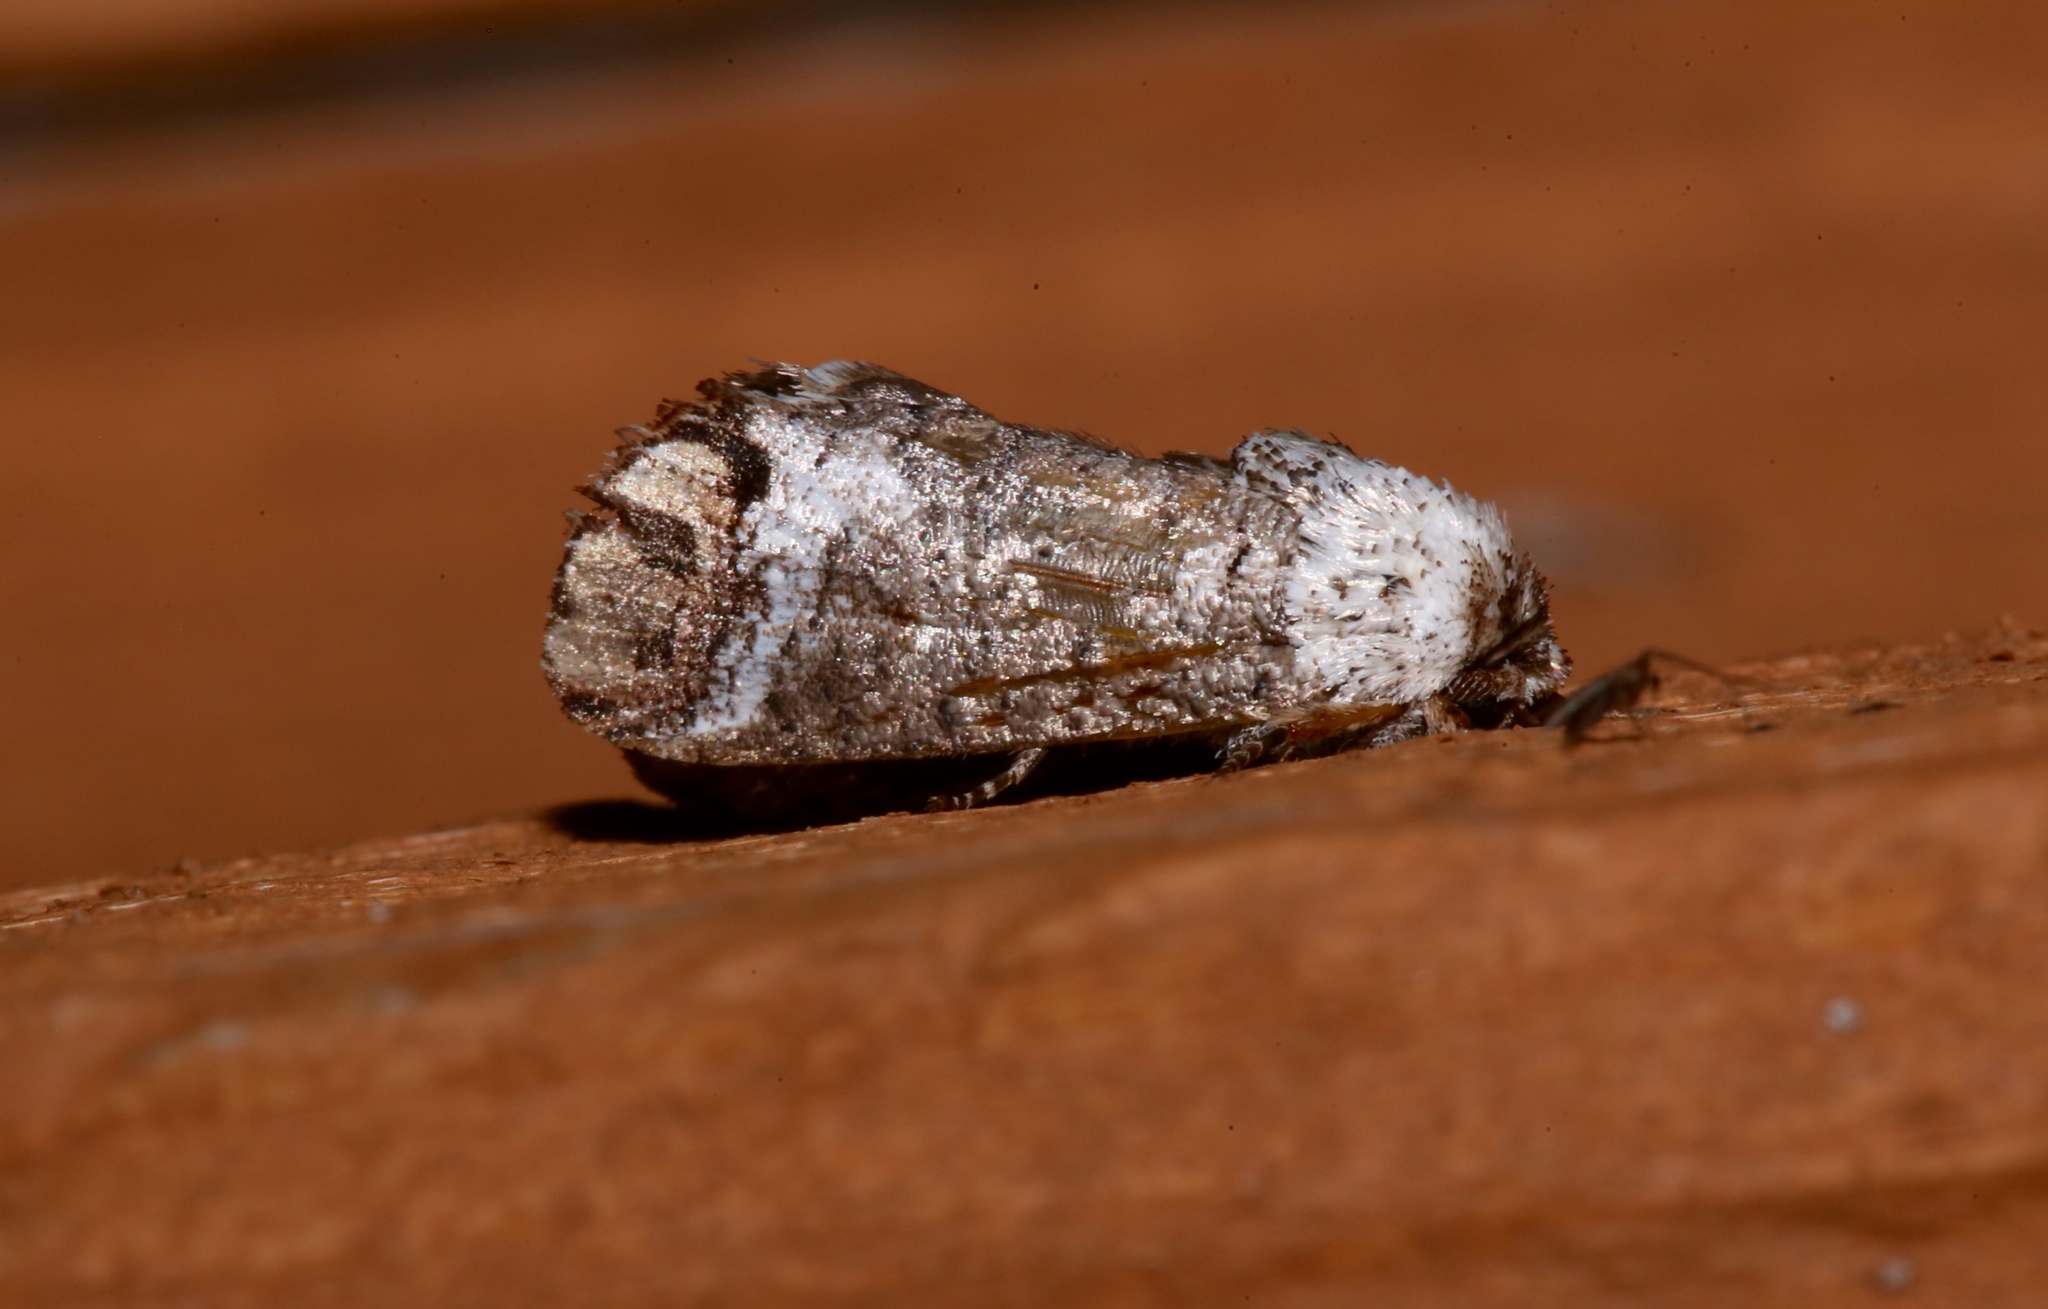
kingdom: Animalia
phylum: Arthropoda
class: Insecta
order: Lepidoptera
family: Cossidae
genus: Cossula
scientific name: Cossula magnifica
